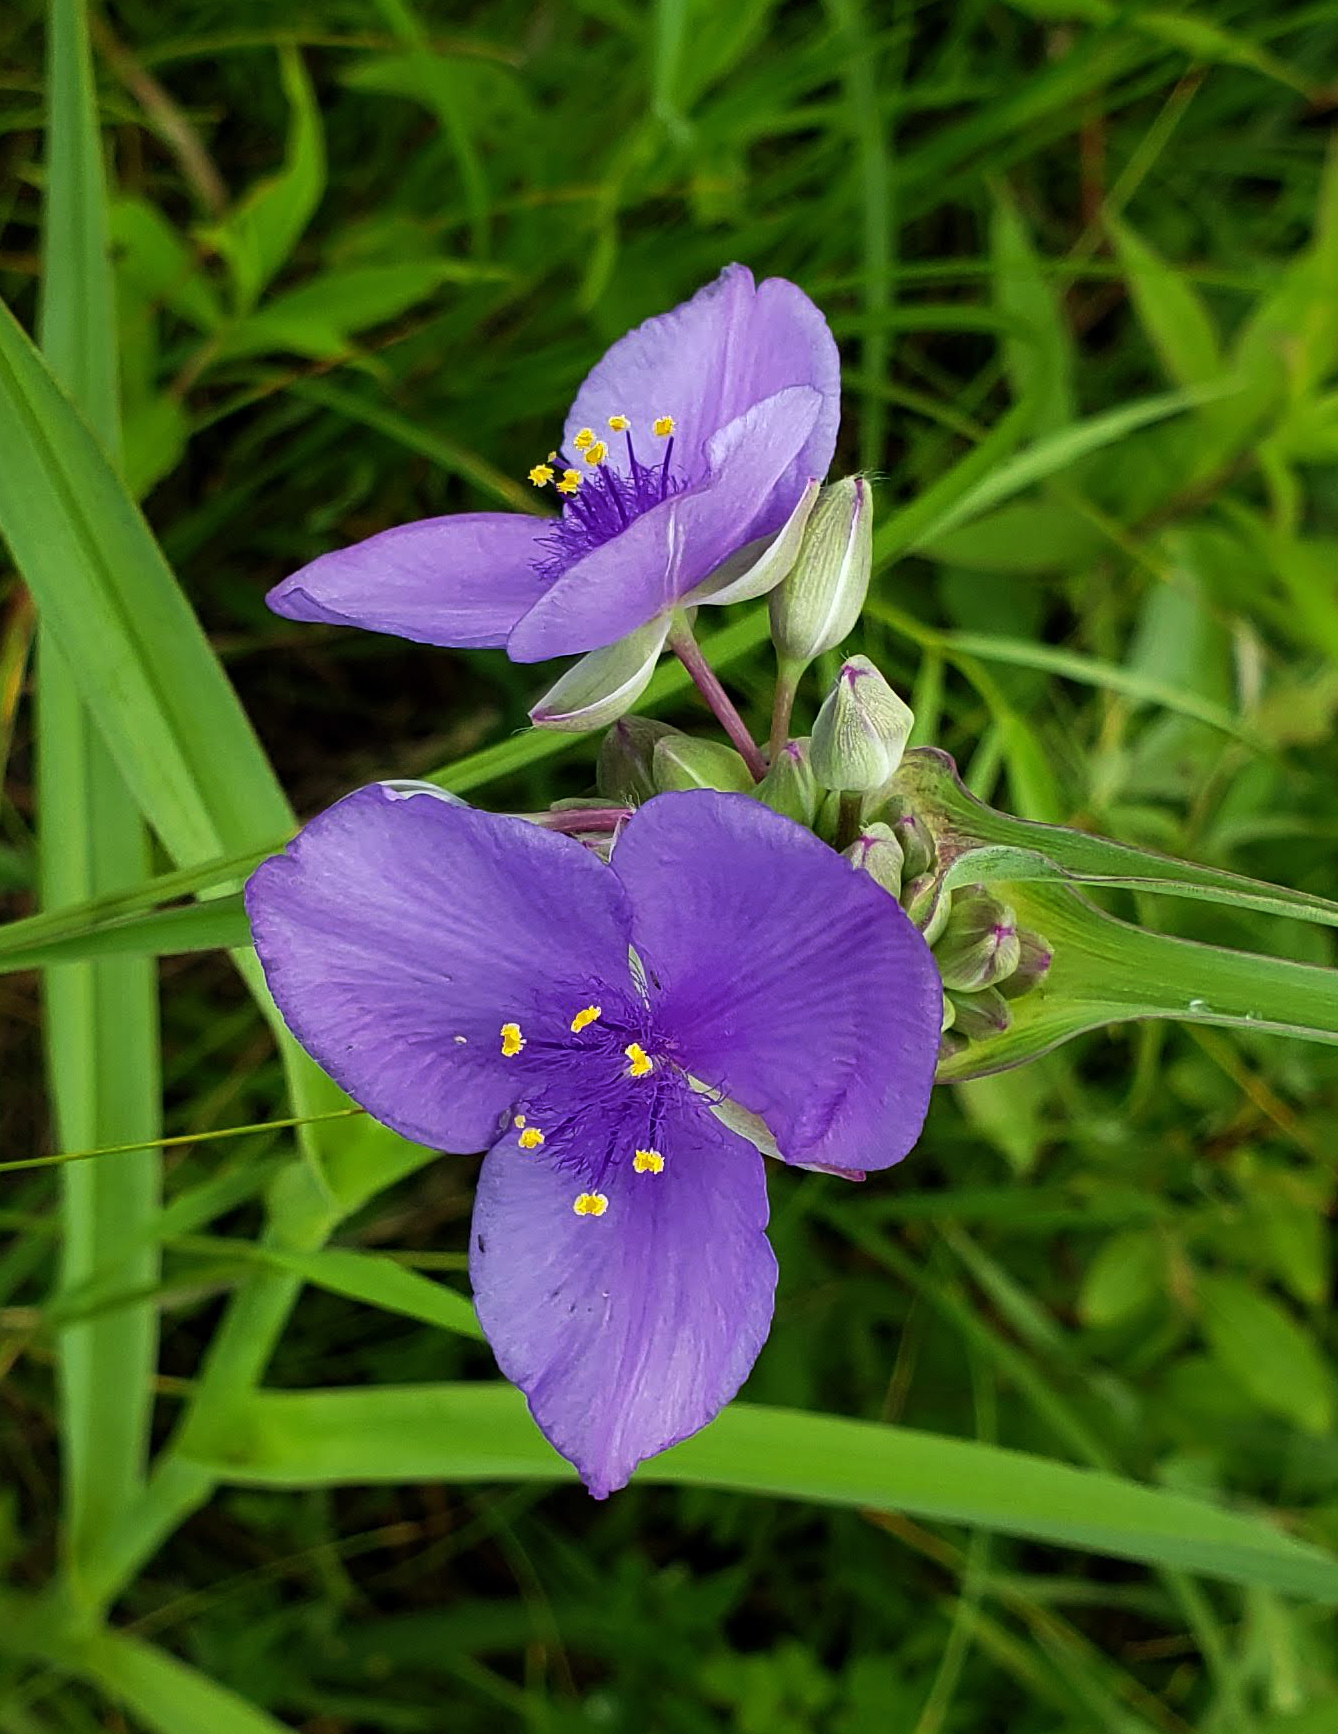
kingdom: Plantae
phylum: Tracheophyta
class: Liliopsida
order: Commelinales
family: Commelinaceae
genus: Tradescantia
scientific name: Tradescantia ohiensis
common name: Ohio spiderwort
